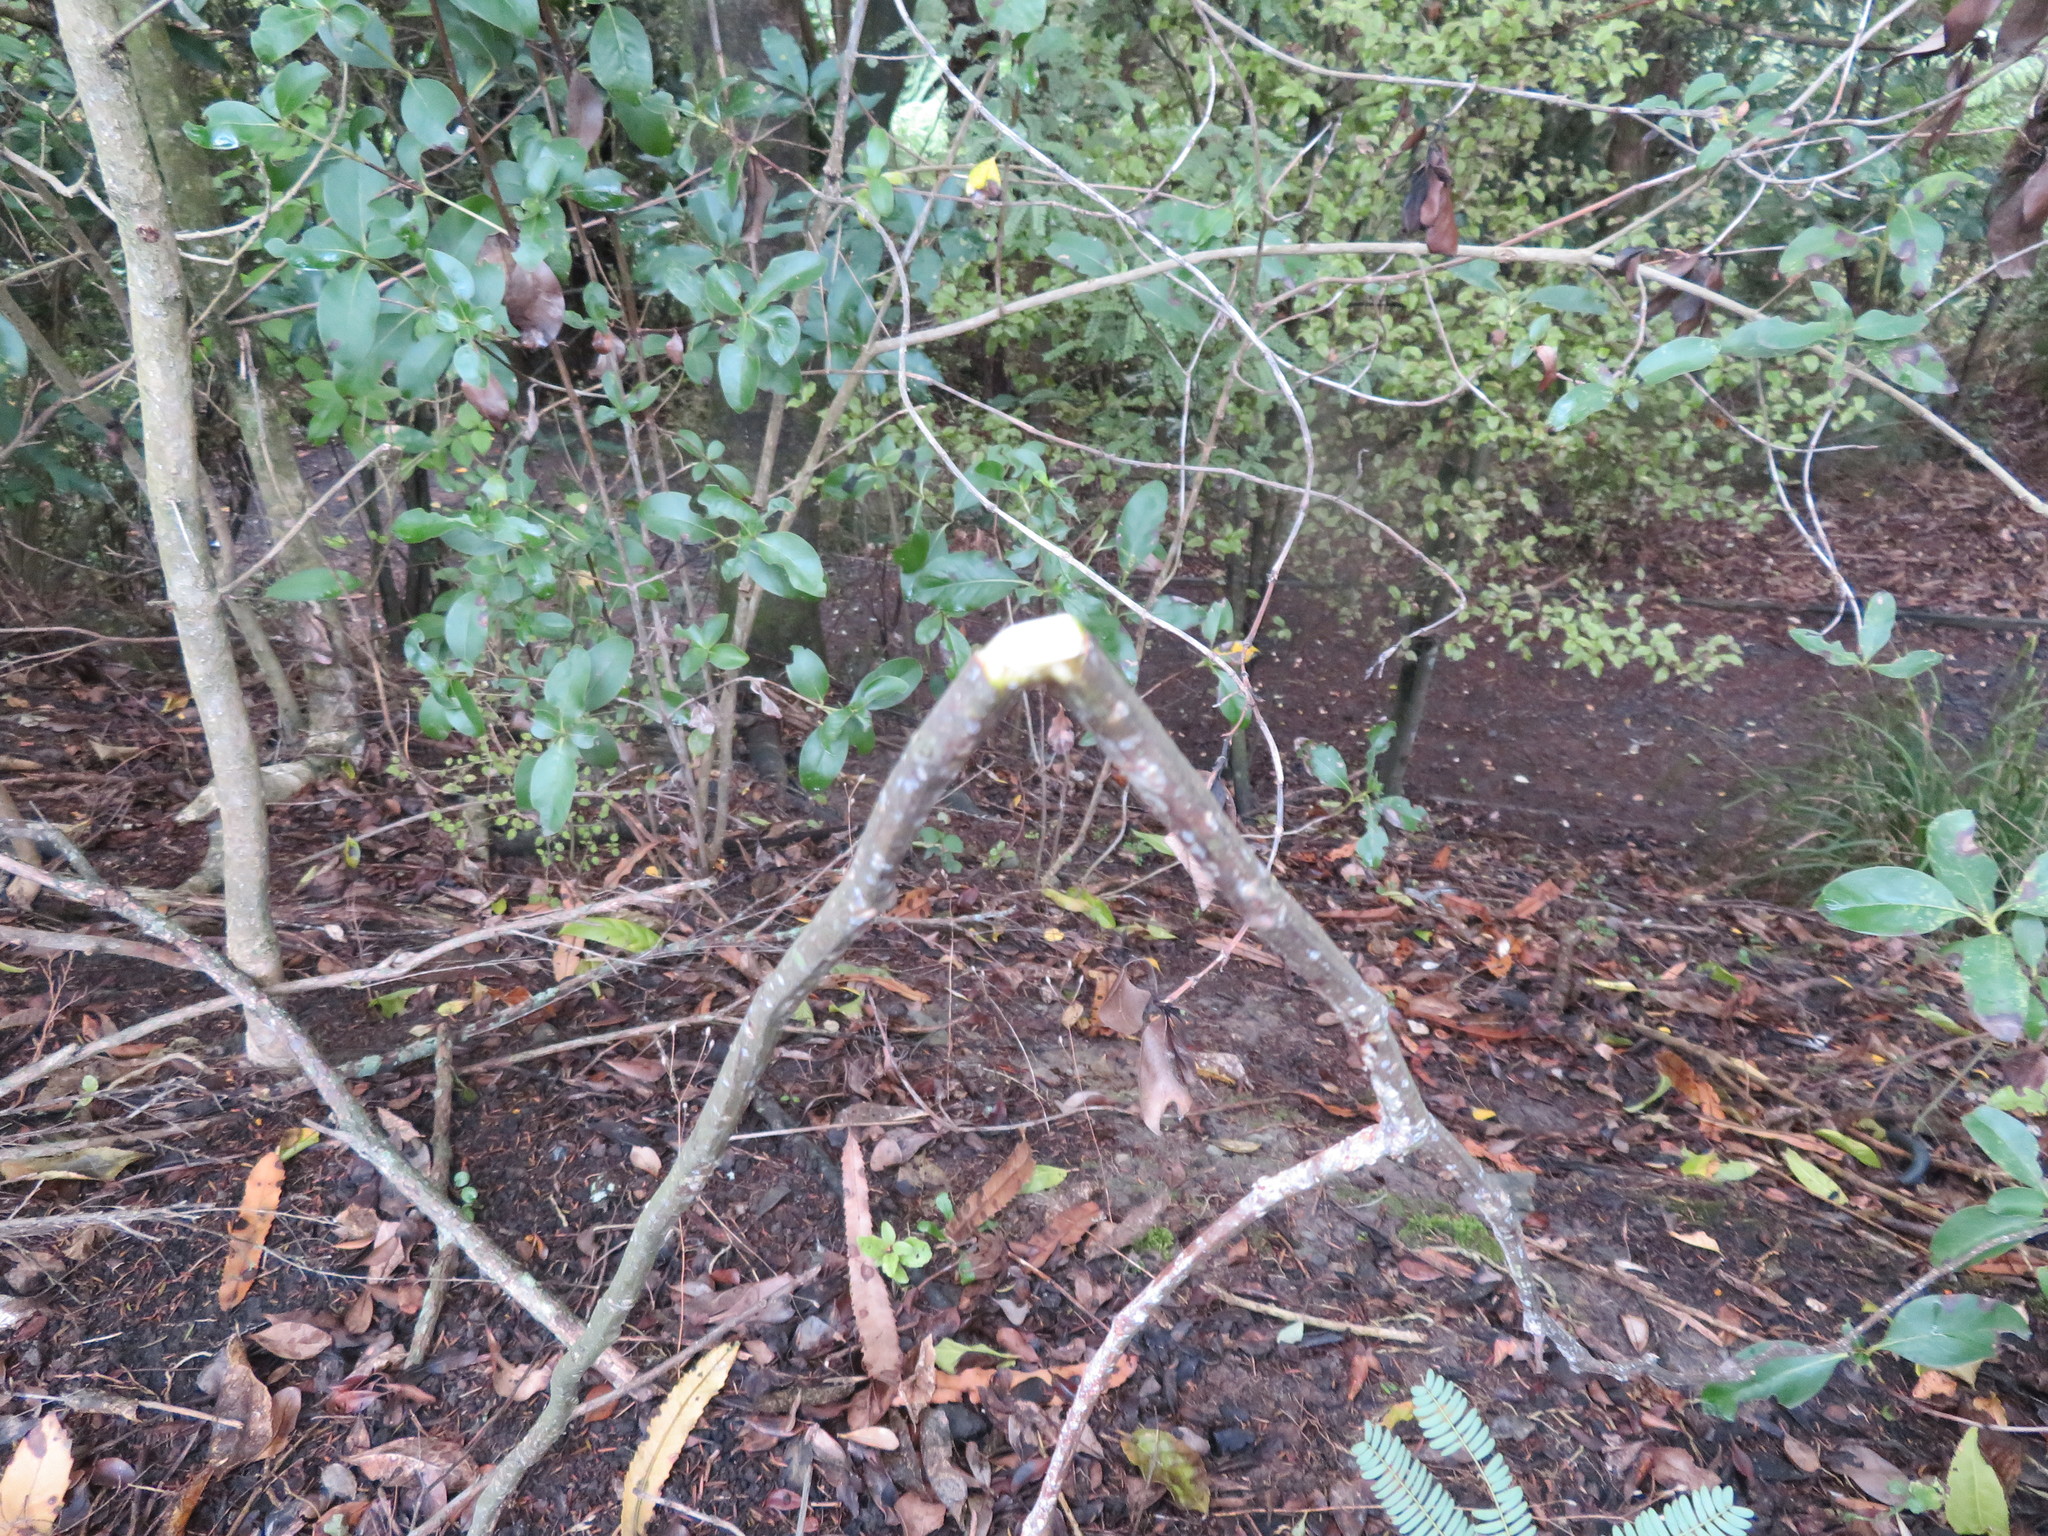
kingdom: Plantae
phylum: Tracheophyta
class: Magnoliopsida
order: Ericales
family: Primulaceae
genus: Myrsine
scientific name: Myrsine australis
